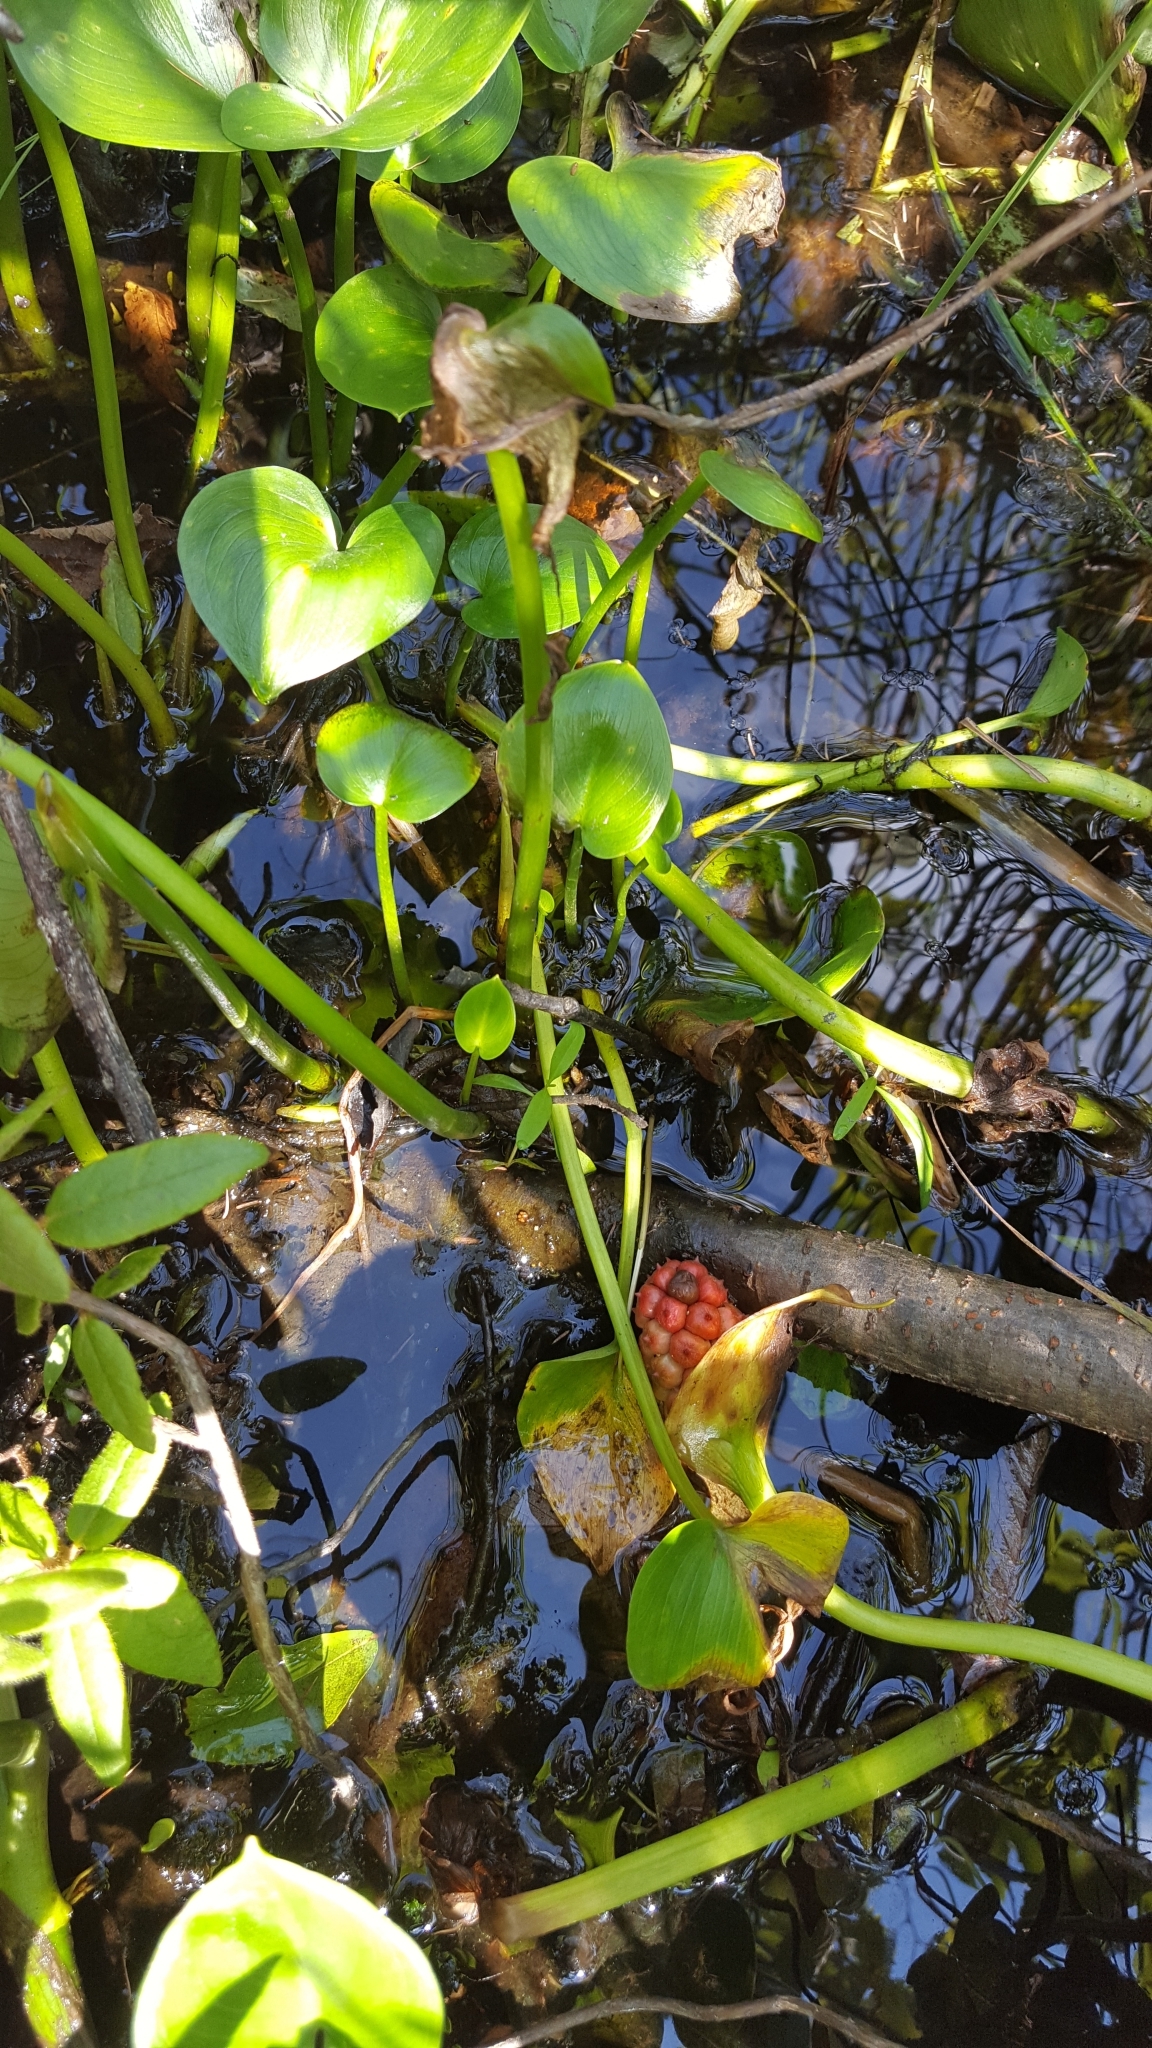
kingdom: Plantae
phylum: Tracheophyta
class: Liliopsida
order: Alismatales
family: Araceae
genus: Calla
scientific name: Calla palustris
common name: Bog arum
